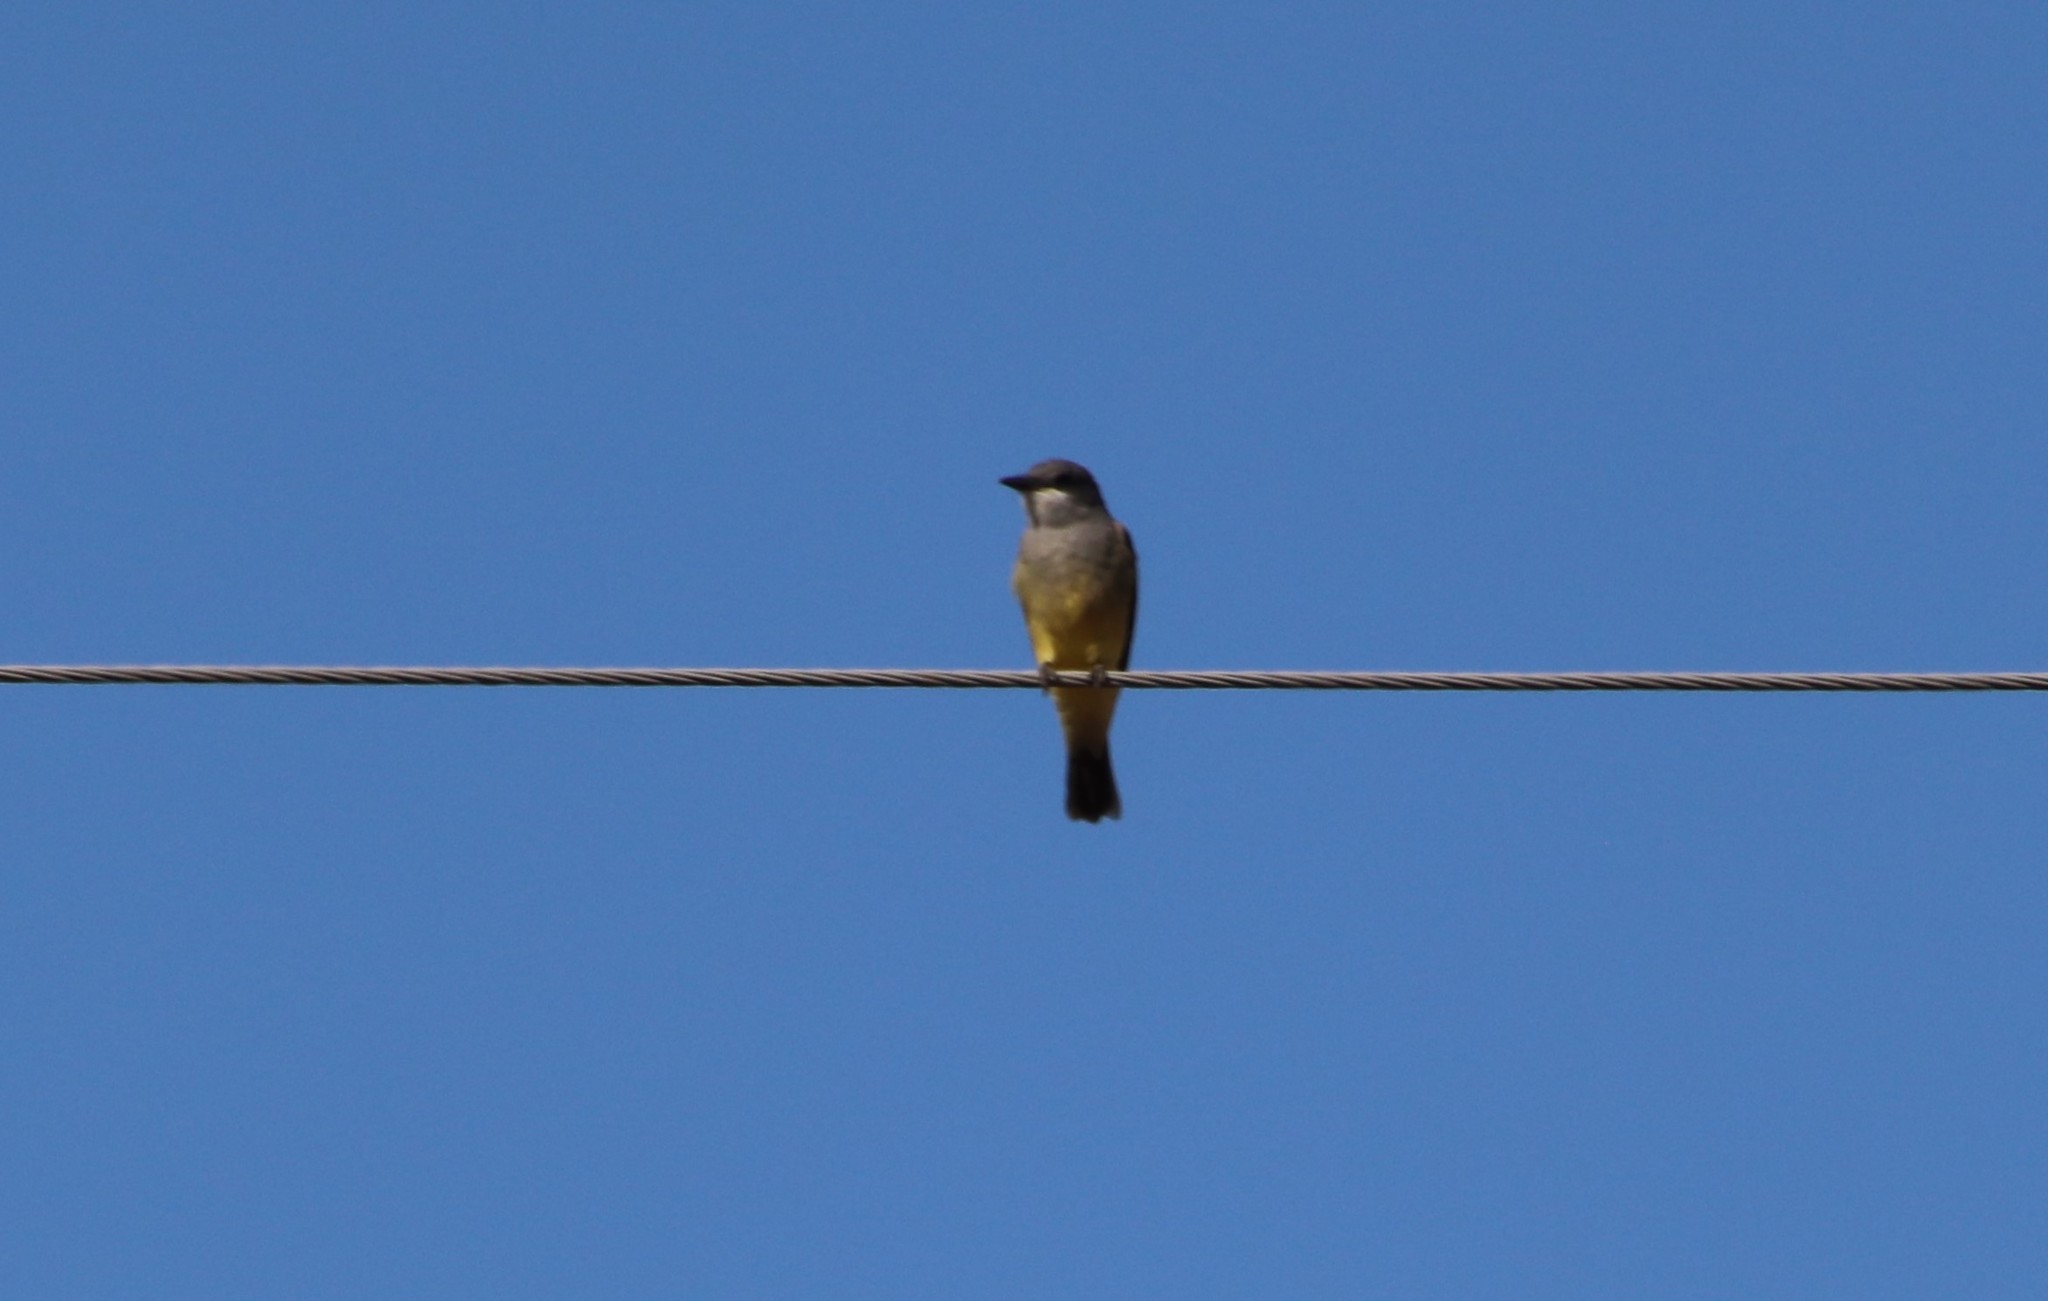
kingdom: Animalia
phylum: Chordata
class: Aves
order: Passeriformes
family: Tyrannidae
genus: Tyrannus
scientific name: Tyrannus vociferans
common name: Cassin's kingbird
